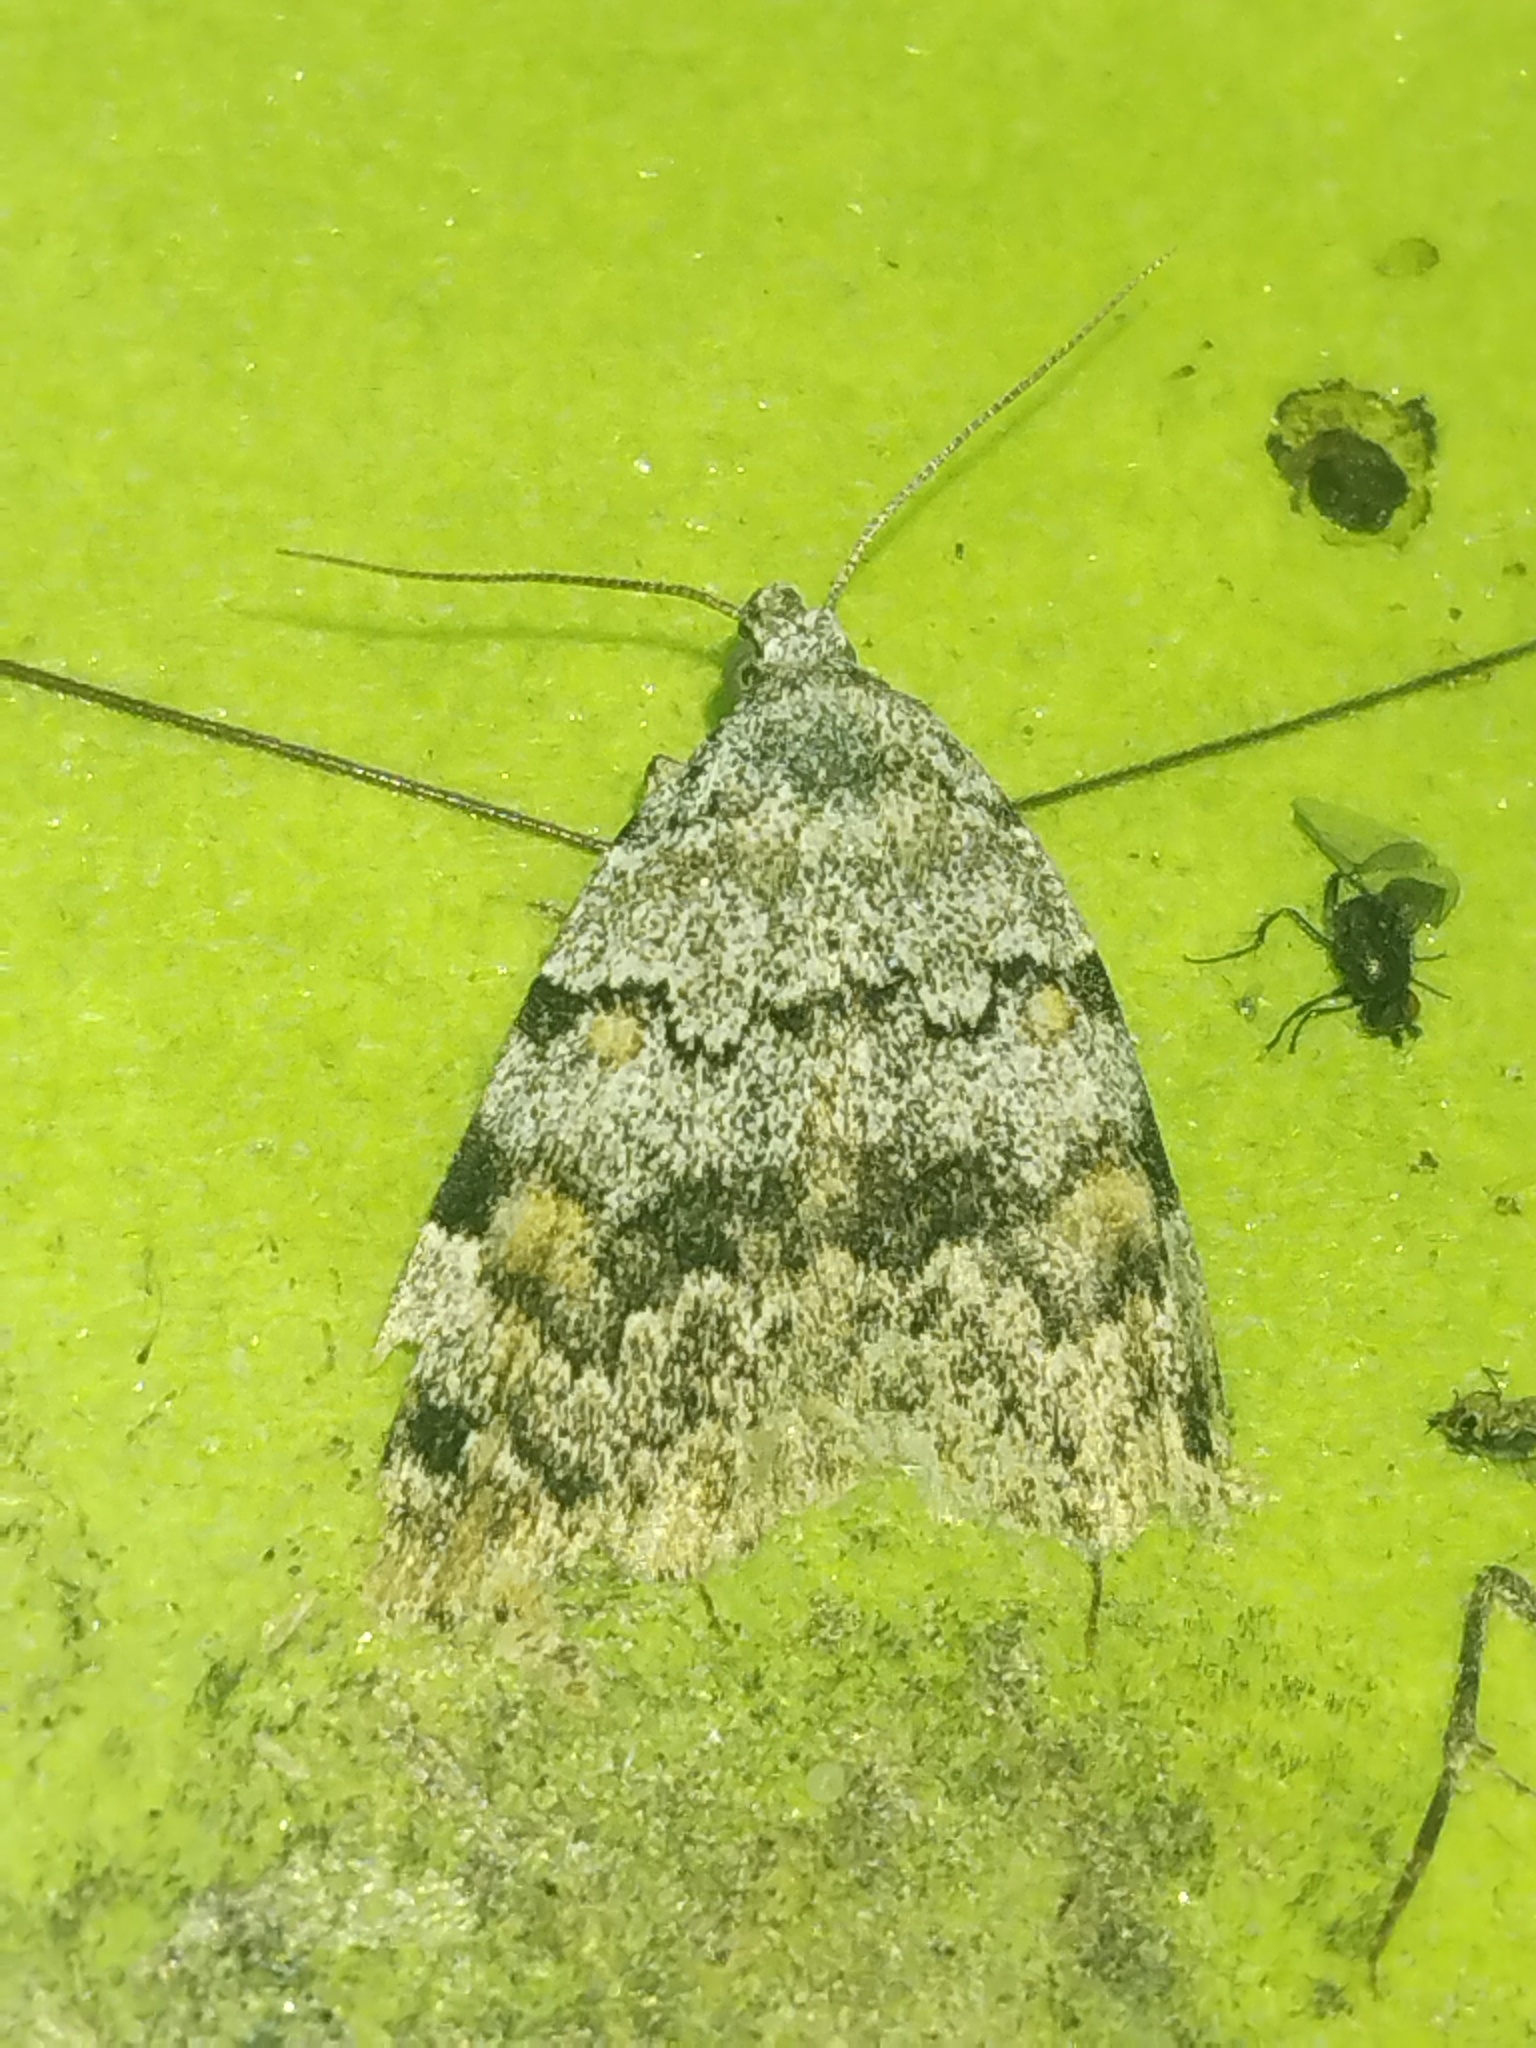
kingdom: Animalia
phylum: Arthropoda
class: Insecta
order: Lepidoptera
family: Erebidae
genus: Idia
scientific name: Idia americalis
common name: American idia moth
